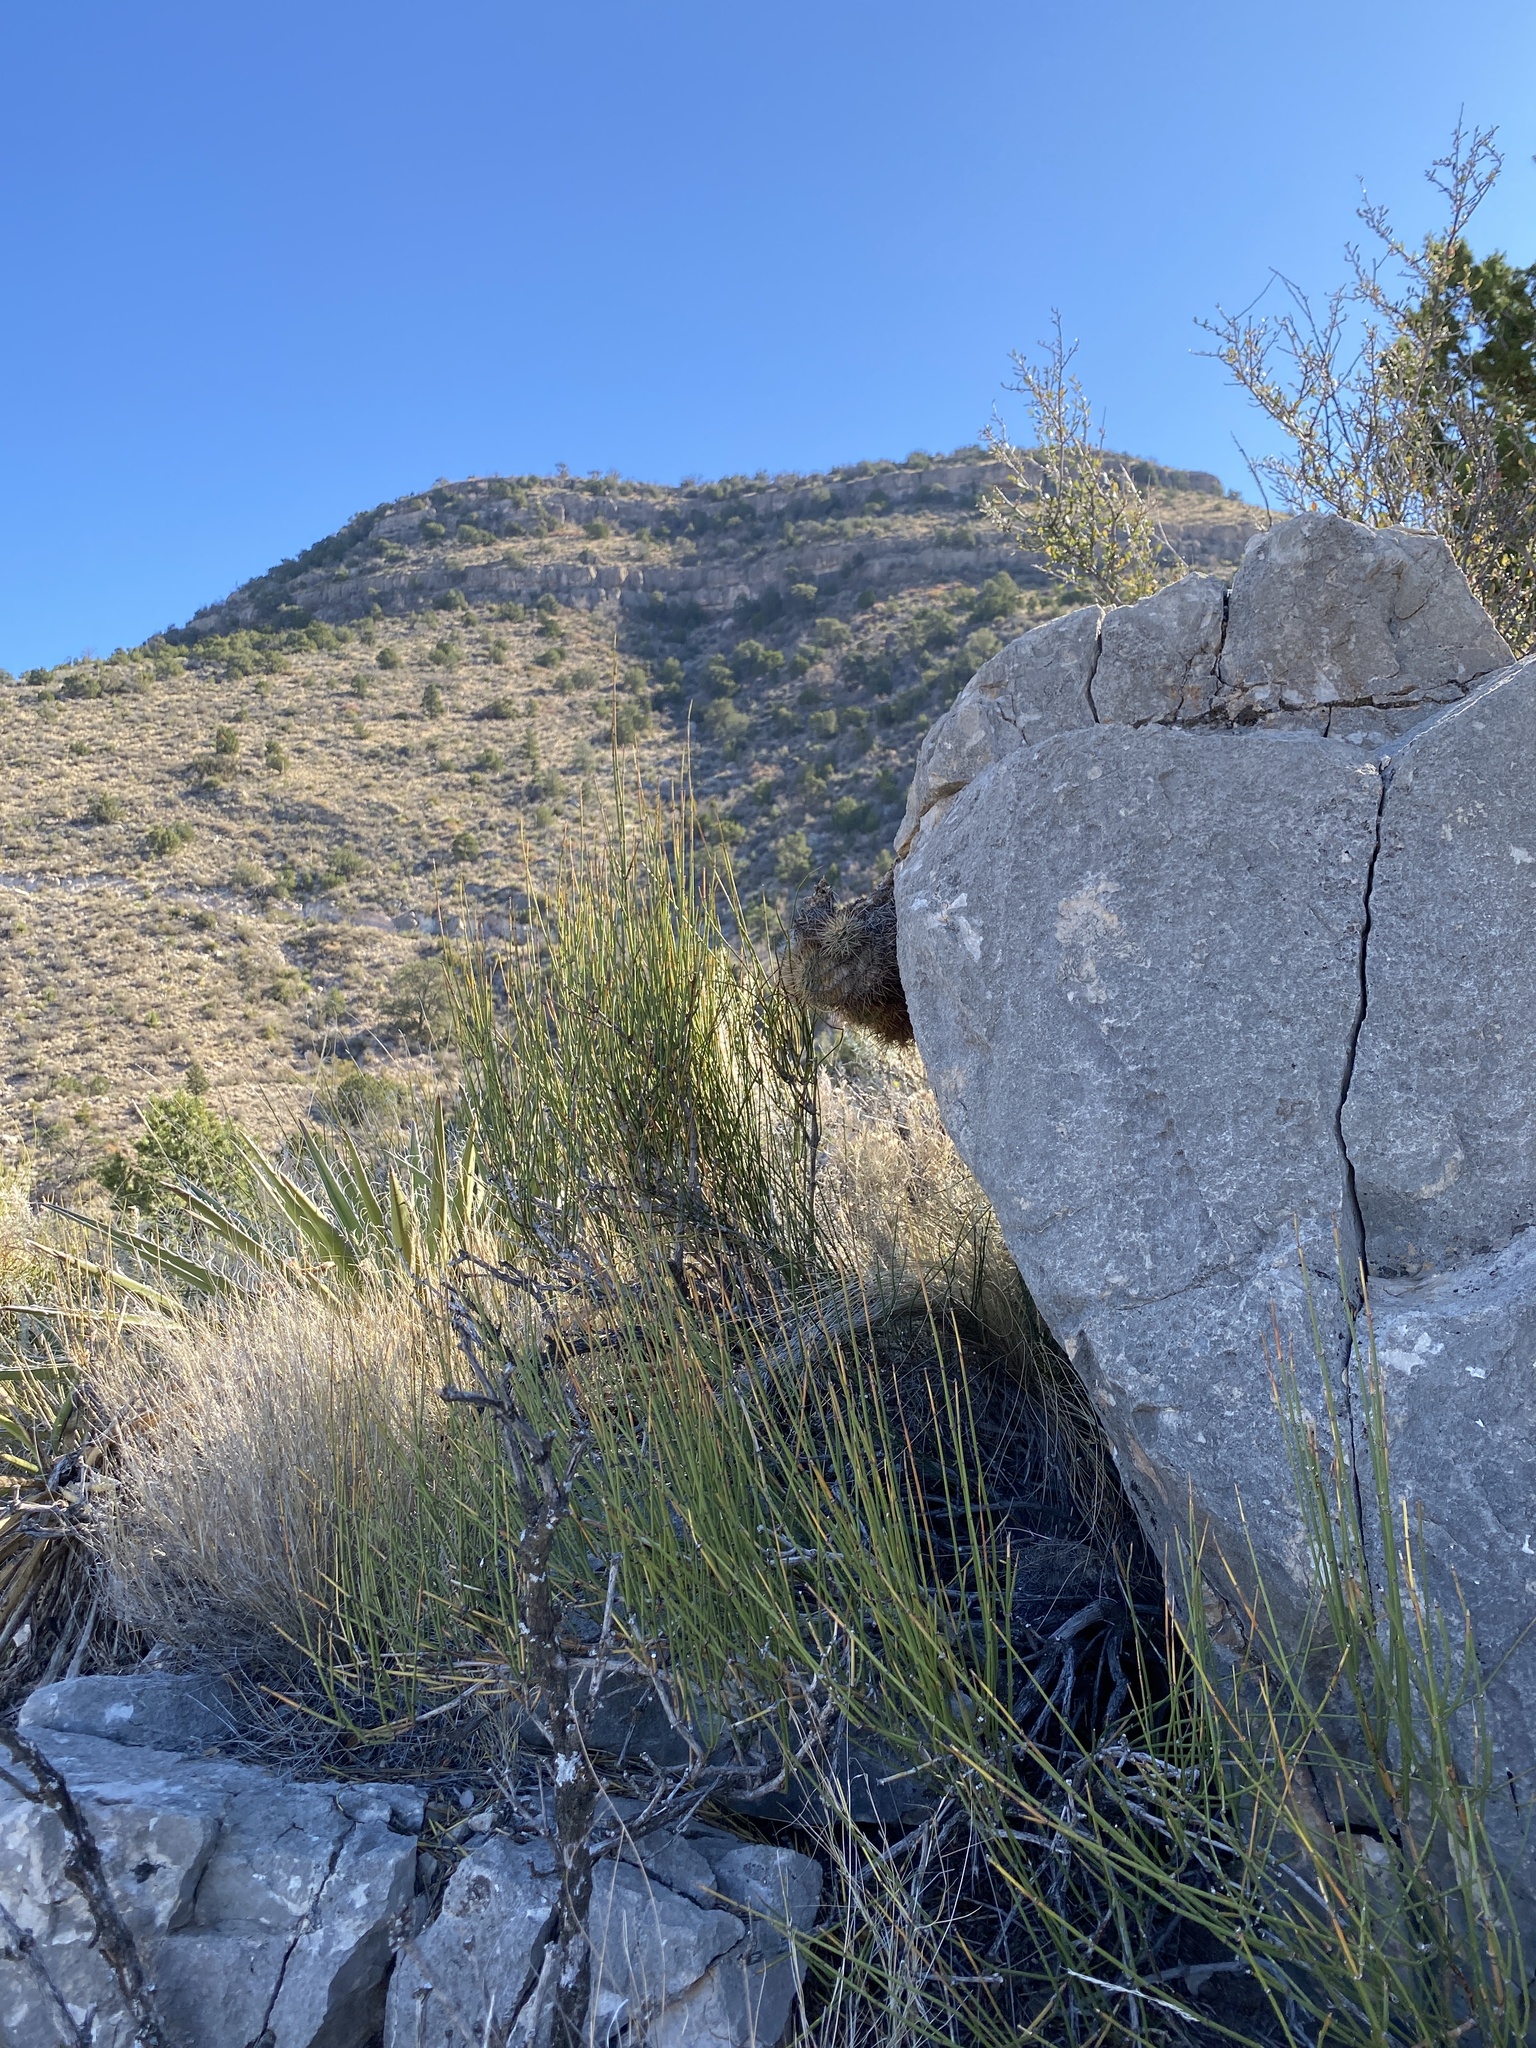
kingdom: Plantae
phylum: Tracheophyta
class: Gnetopsida
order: Ephedrales
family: Ephedraceae
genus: Ephedra
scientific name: Ephedra viridis
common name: Green ephedra
